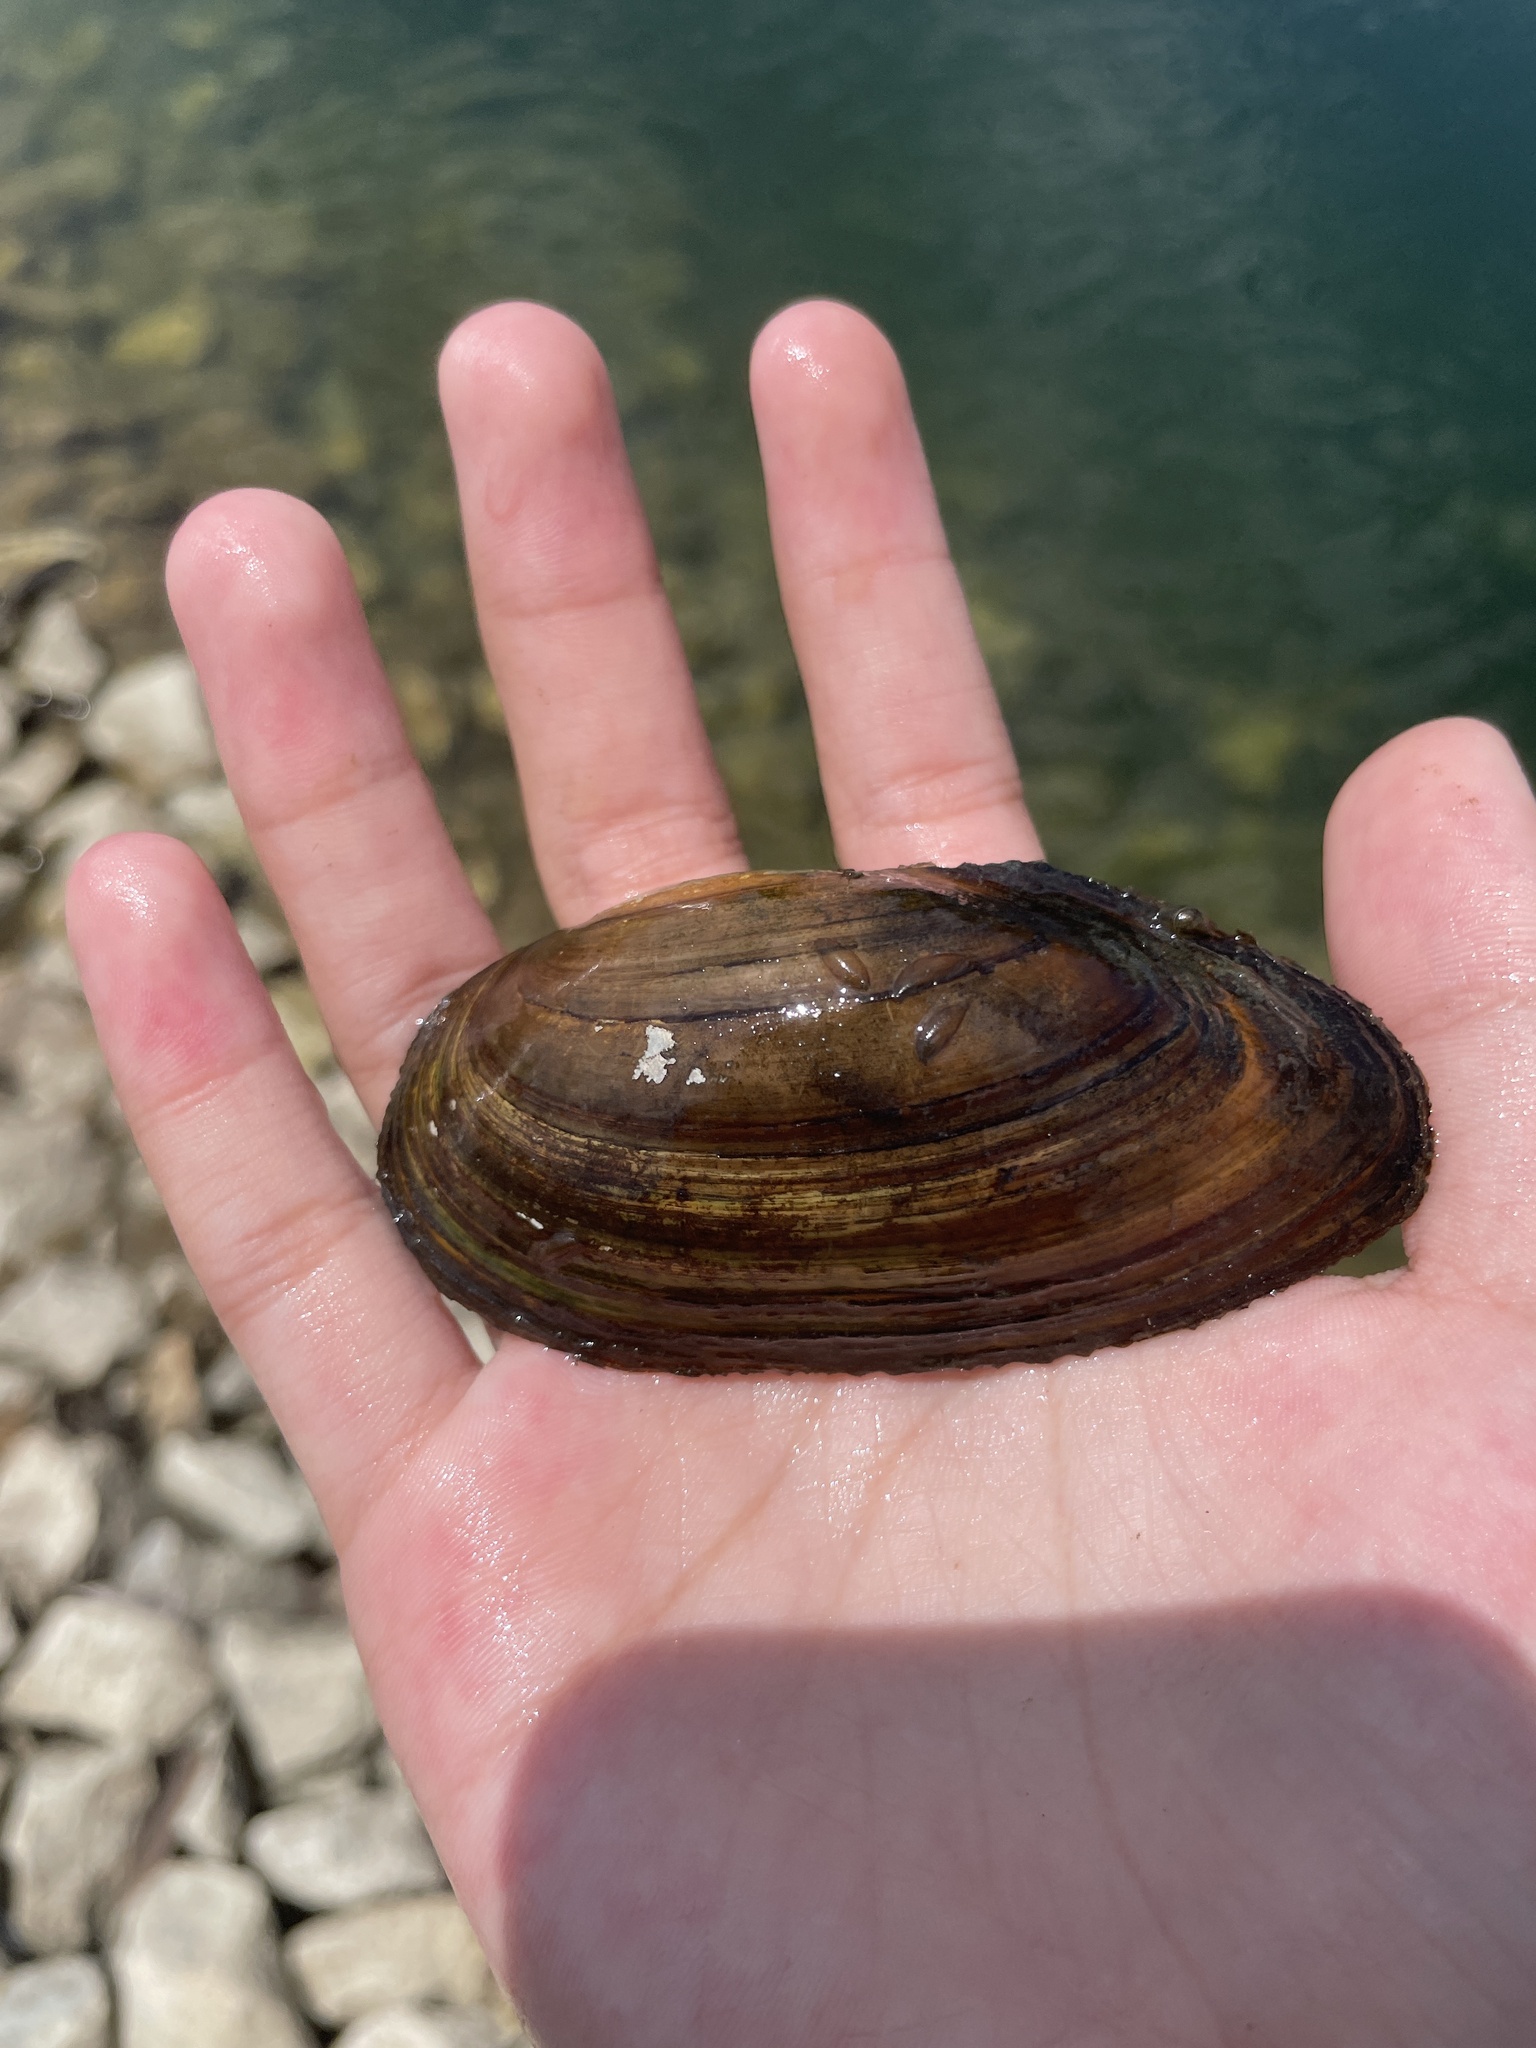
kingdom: Animalia
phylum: Mollusca
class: Bivalvia
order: Unionida
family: Unionidae
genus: Utterbackia
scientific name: Utterbackia imbecillis
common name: Paper pondshell
